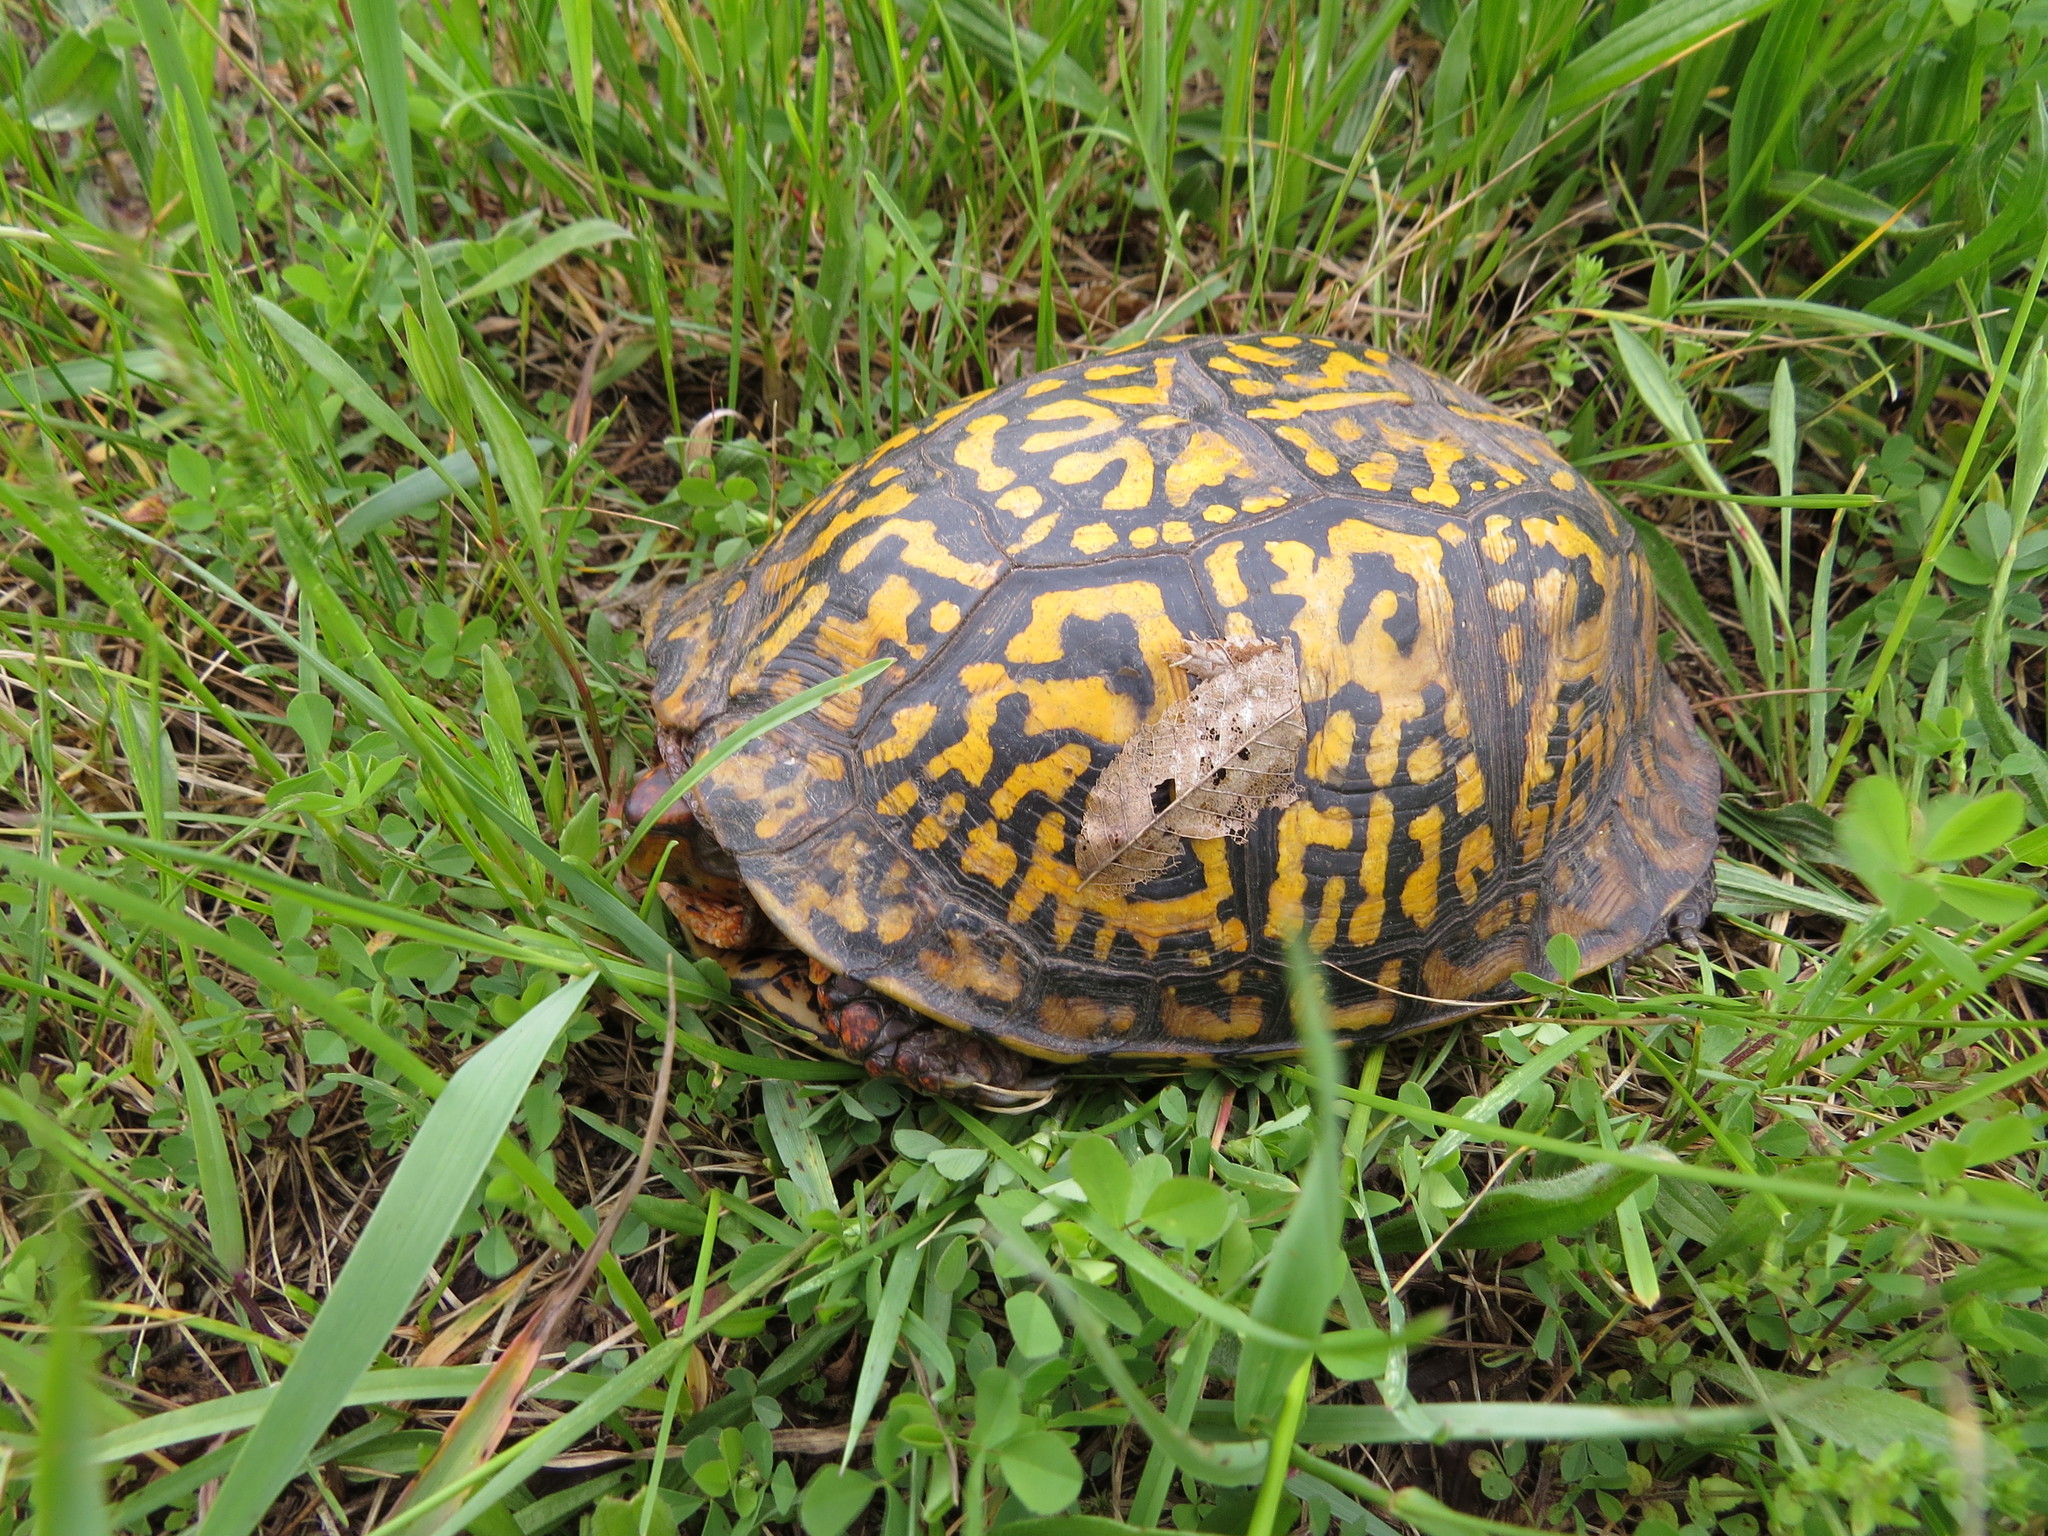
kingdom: Animalia
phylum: Chordata
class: Testudines
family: Emydidae
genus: Terrapene
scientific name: Terrapene carolina
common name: Common box turtle
